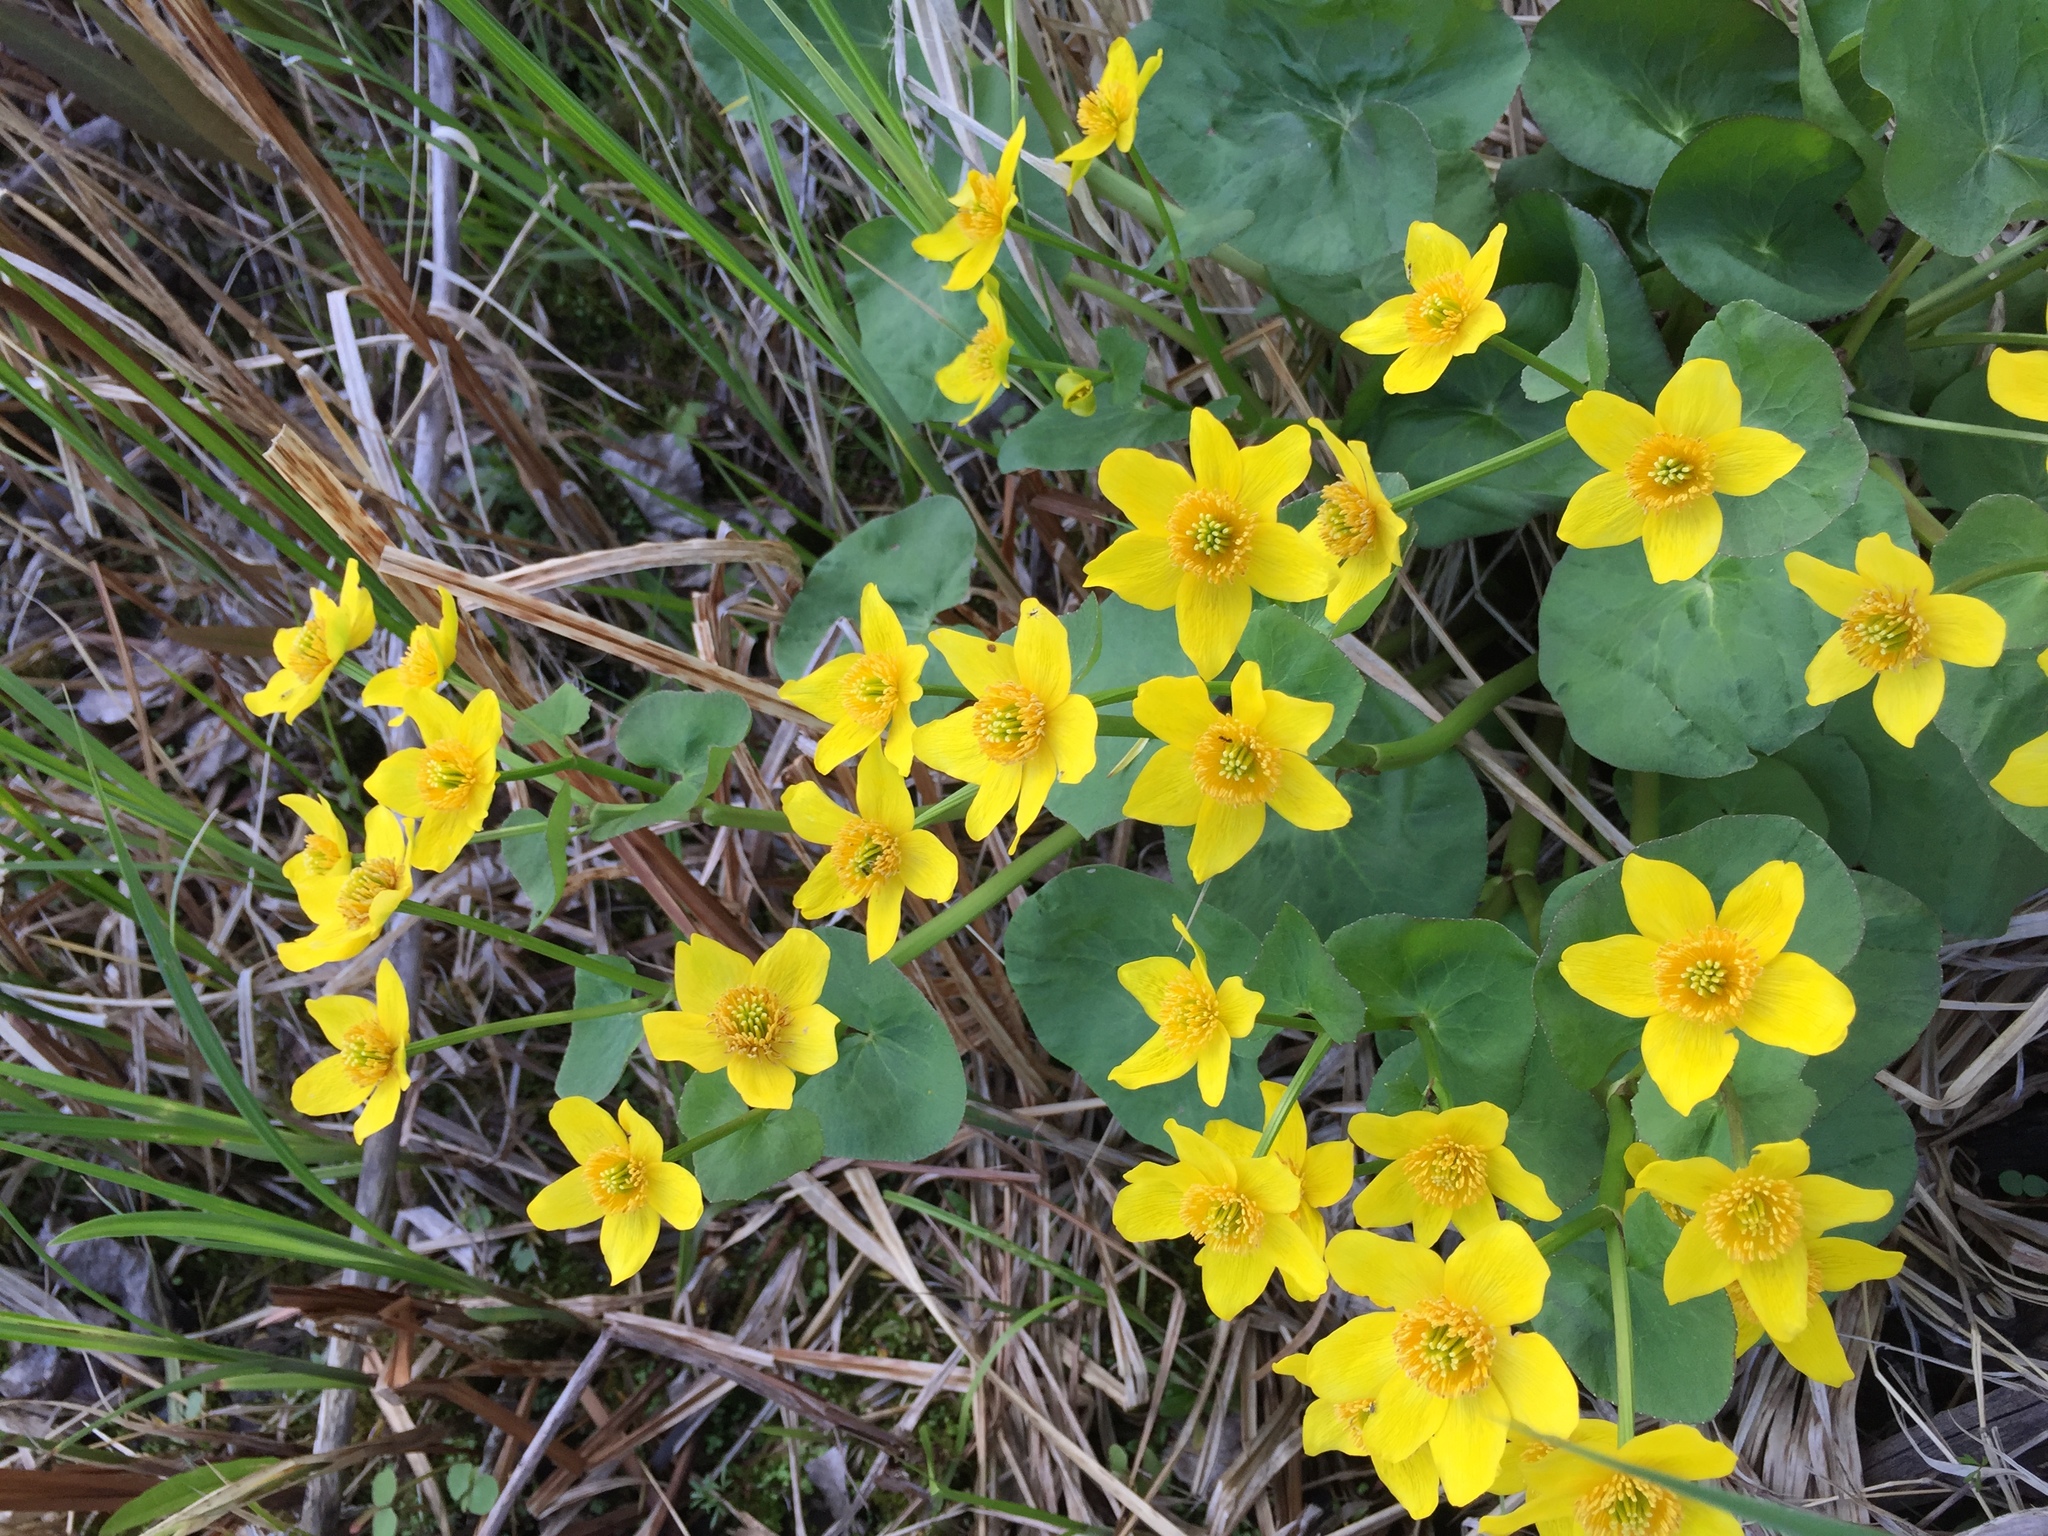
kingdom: Plantae
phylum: Tracheophyta
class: Magnoliopsida
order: Ranunculales
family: Ranunculaceae
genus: Caltha
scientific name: Caltha palustris
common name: Marsh marigold
